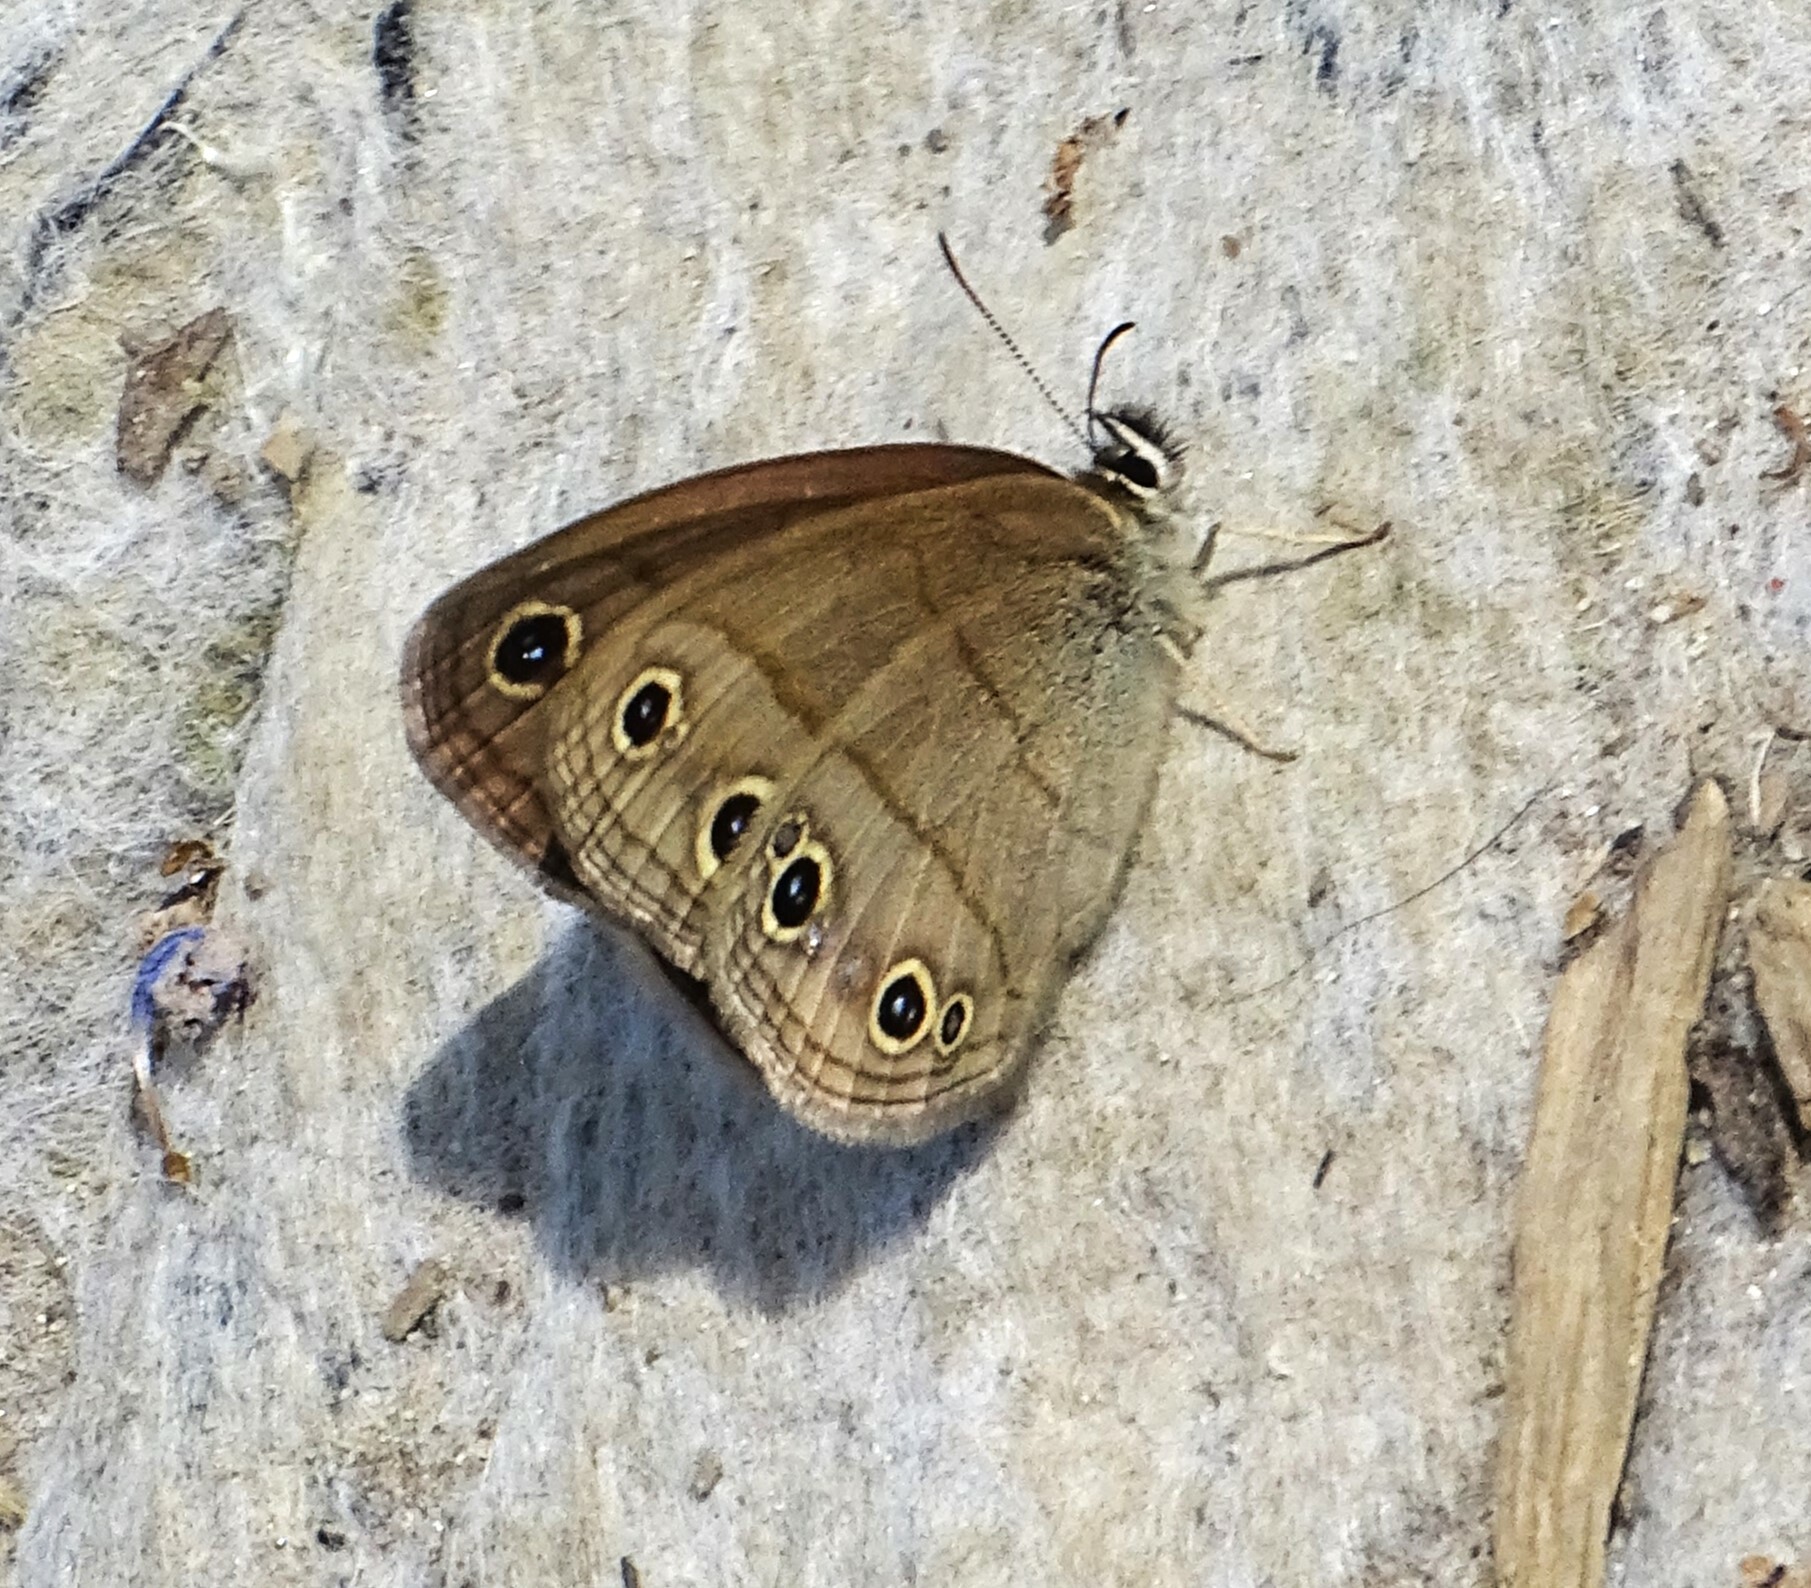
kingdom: Animalia
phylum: Arthropoda
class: Insecta
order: Lepidoptera
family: Nymphalidae
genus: Euptychia
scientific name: Euptychia cymela
